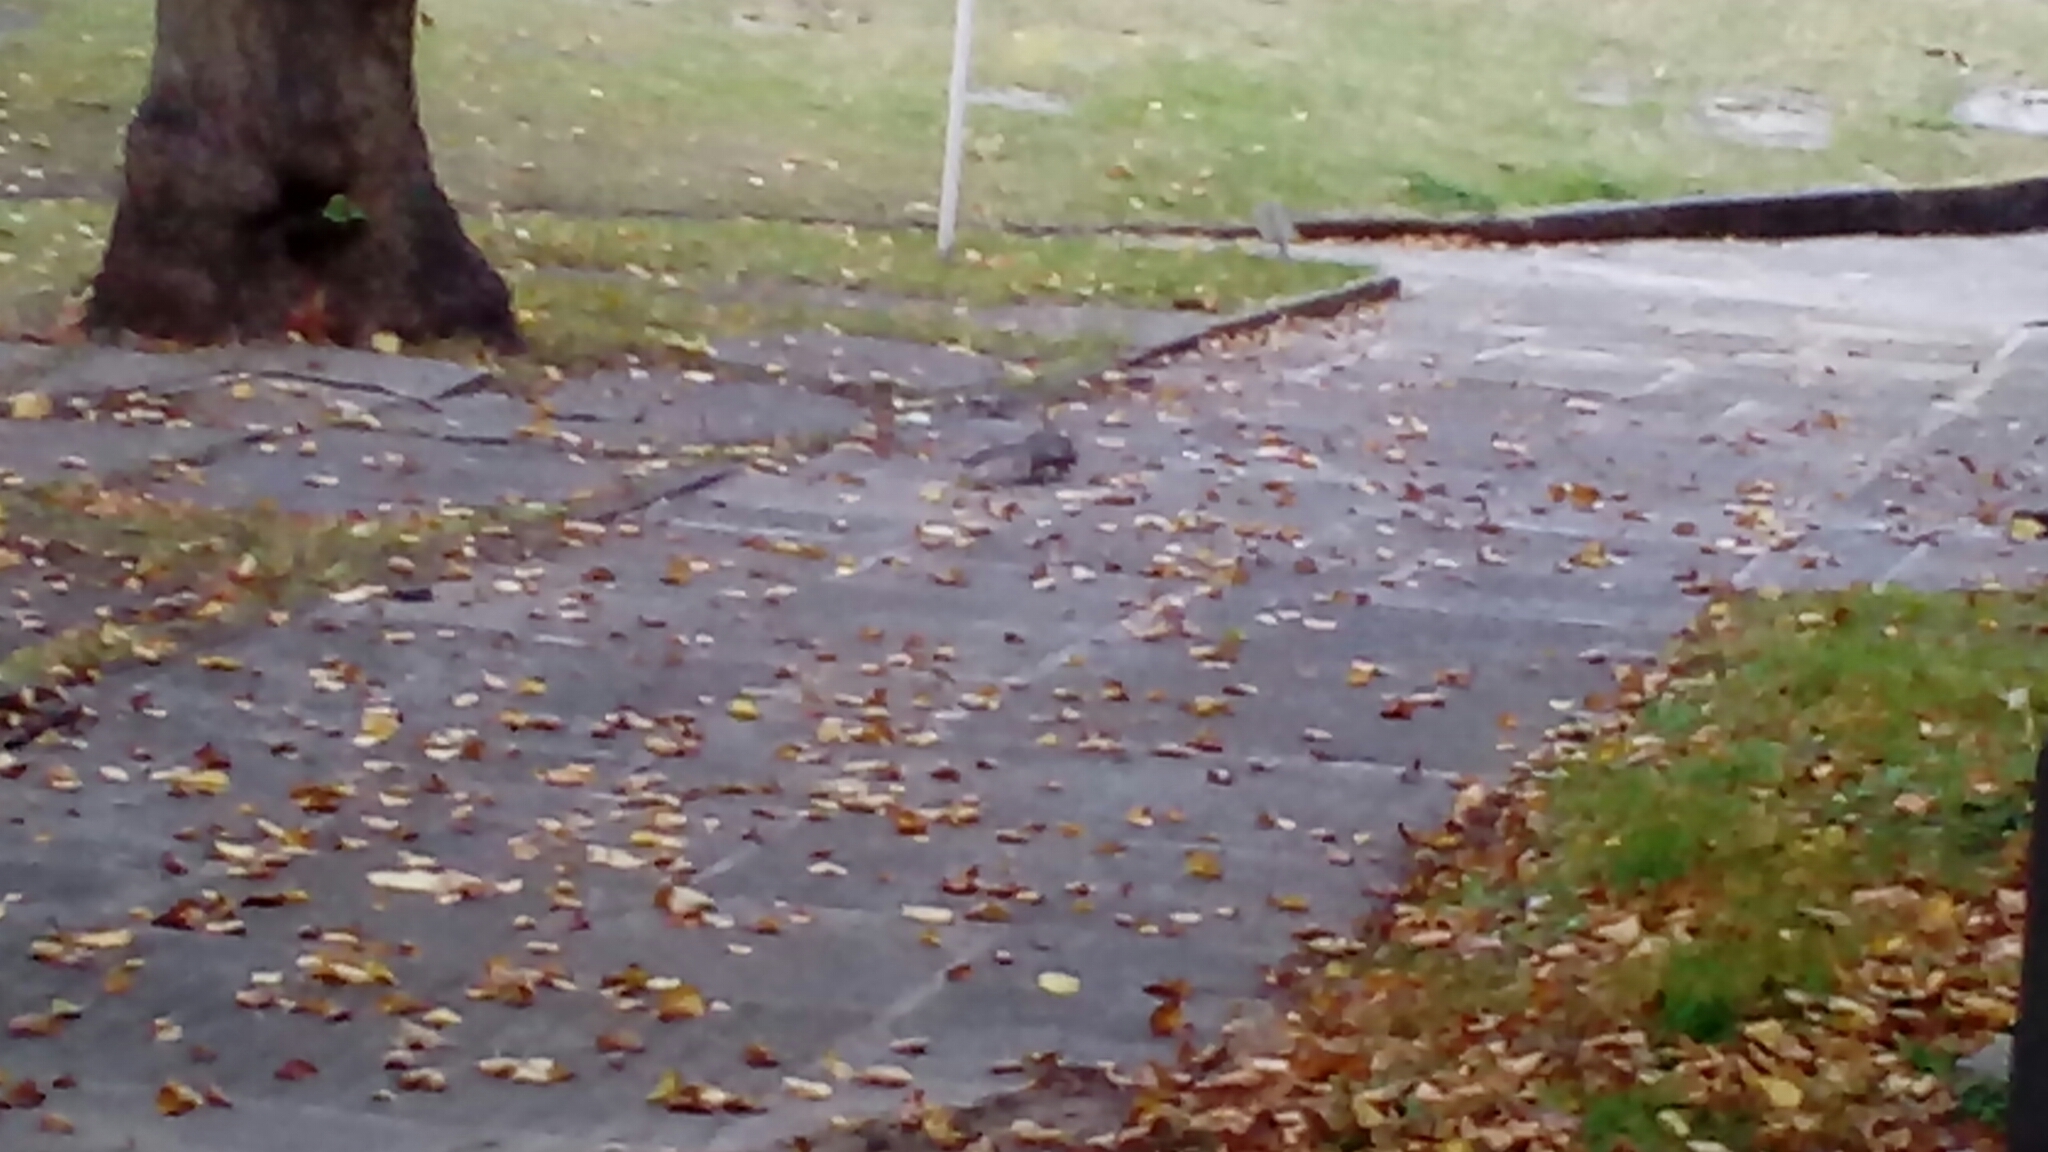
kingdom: Animalia
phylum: Chordata
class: Mammalia
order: Rodentia
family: Sciuridae
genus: Sciurus
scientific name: Sciurus carolinensis
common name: Eastern gray squirrel
